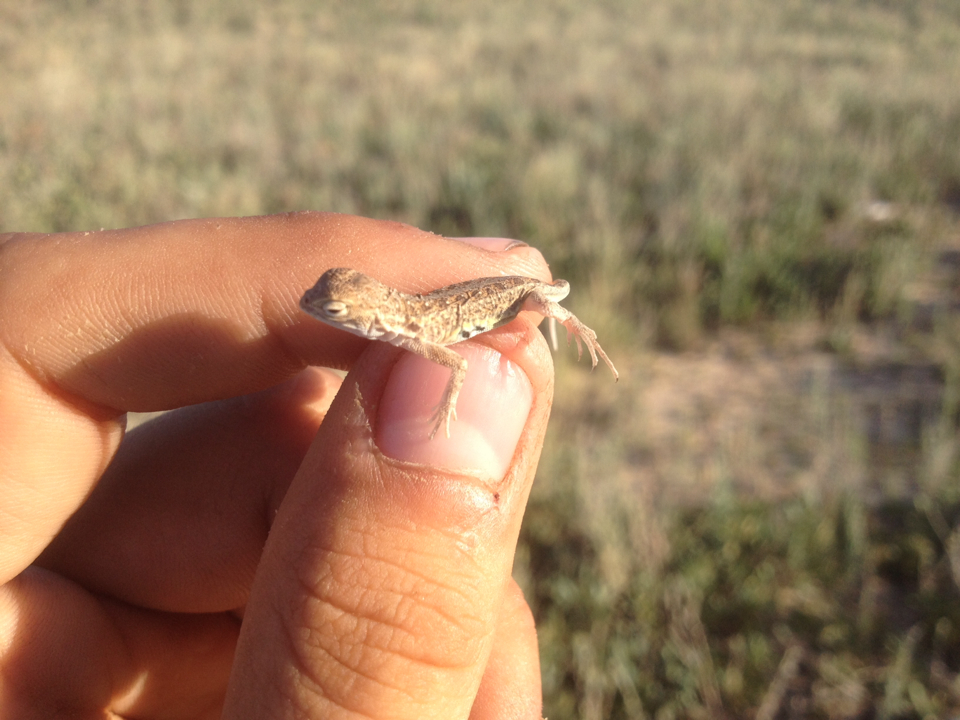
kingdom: Animalia
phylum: Chordata
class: Squamata
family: Phrynosomatidae
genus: Holbrookia
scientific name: Holbrookia maculata
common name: Lesser earless lizard
